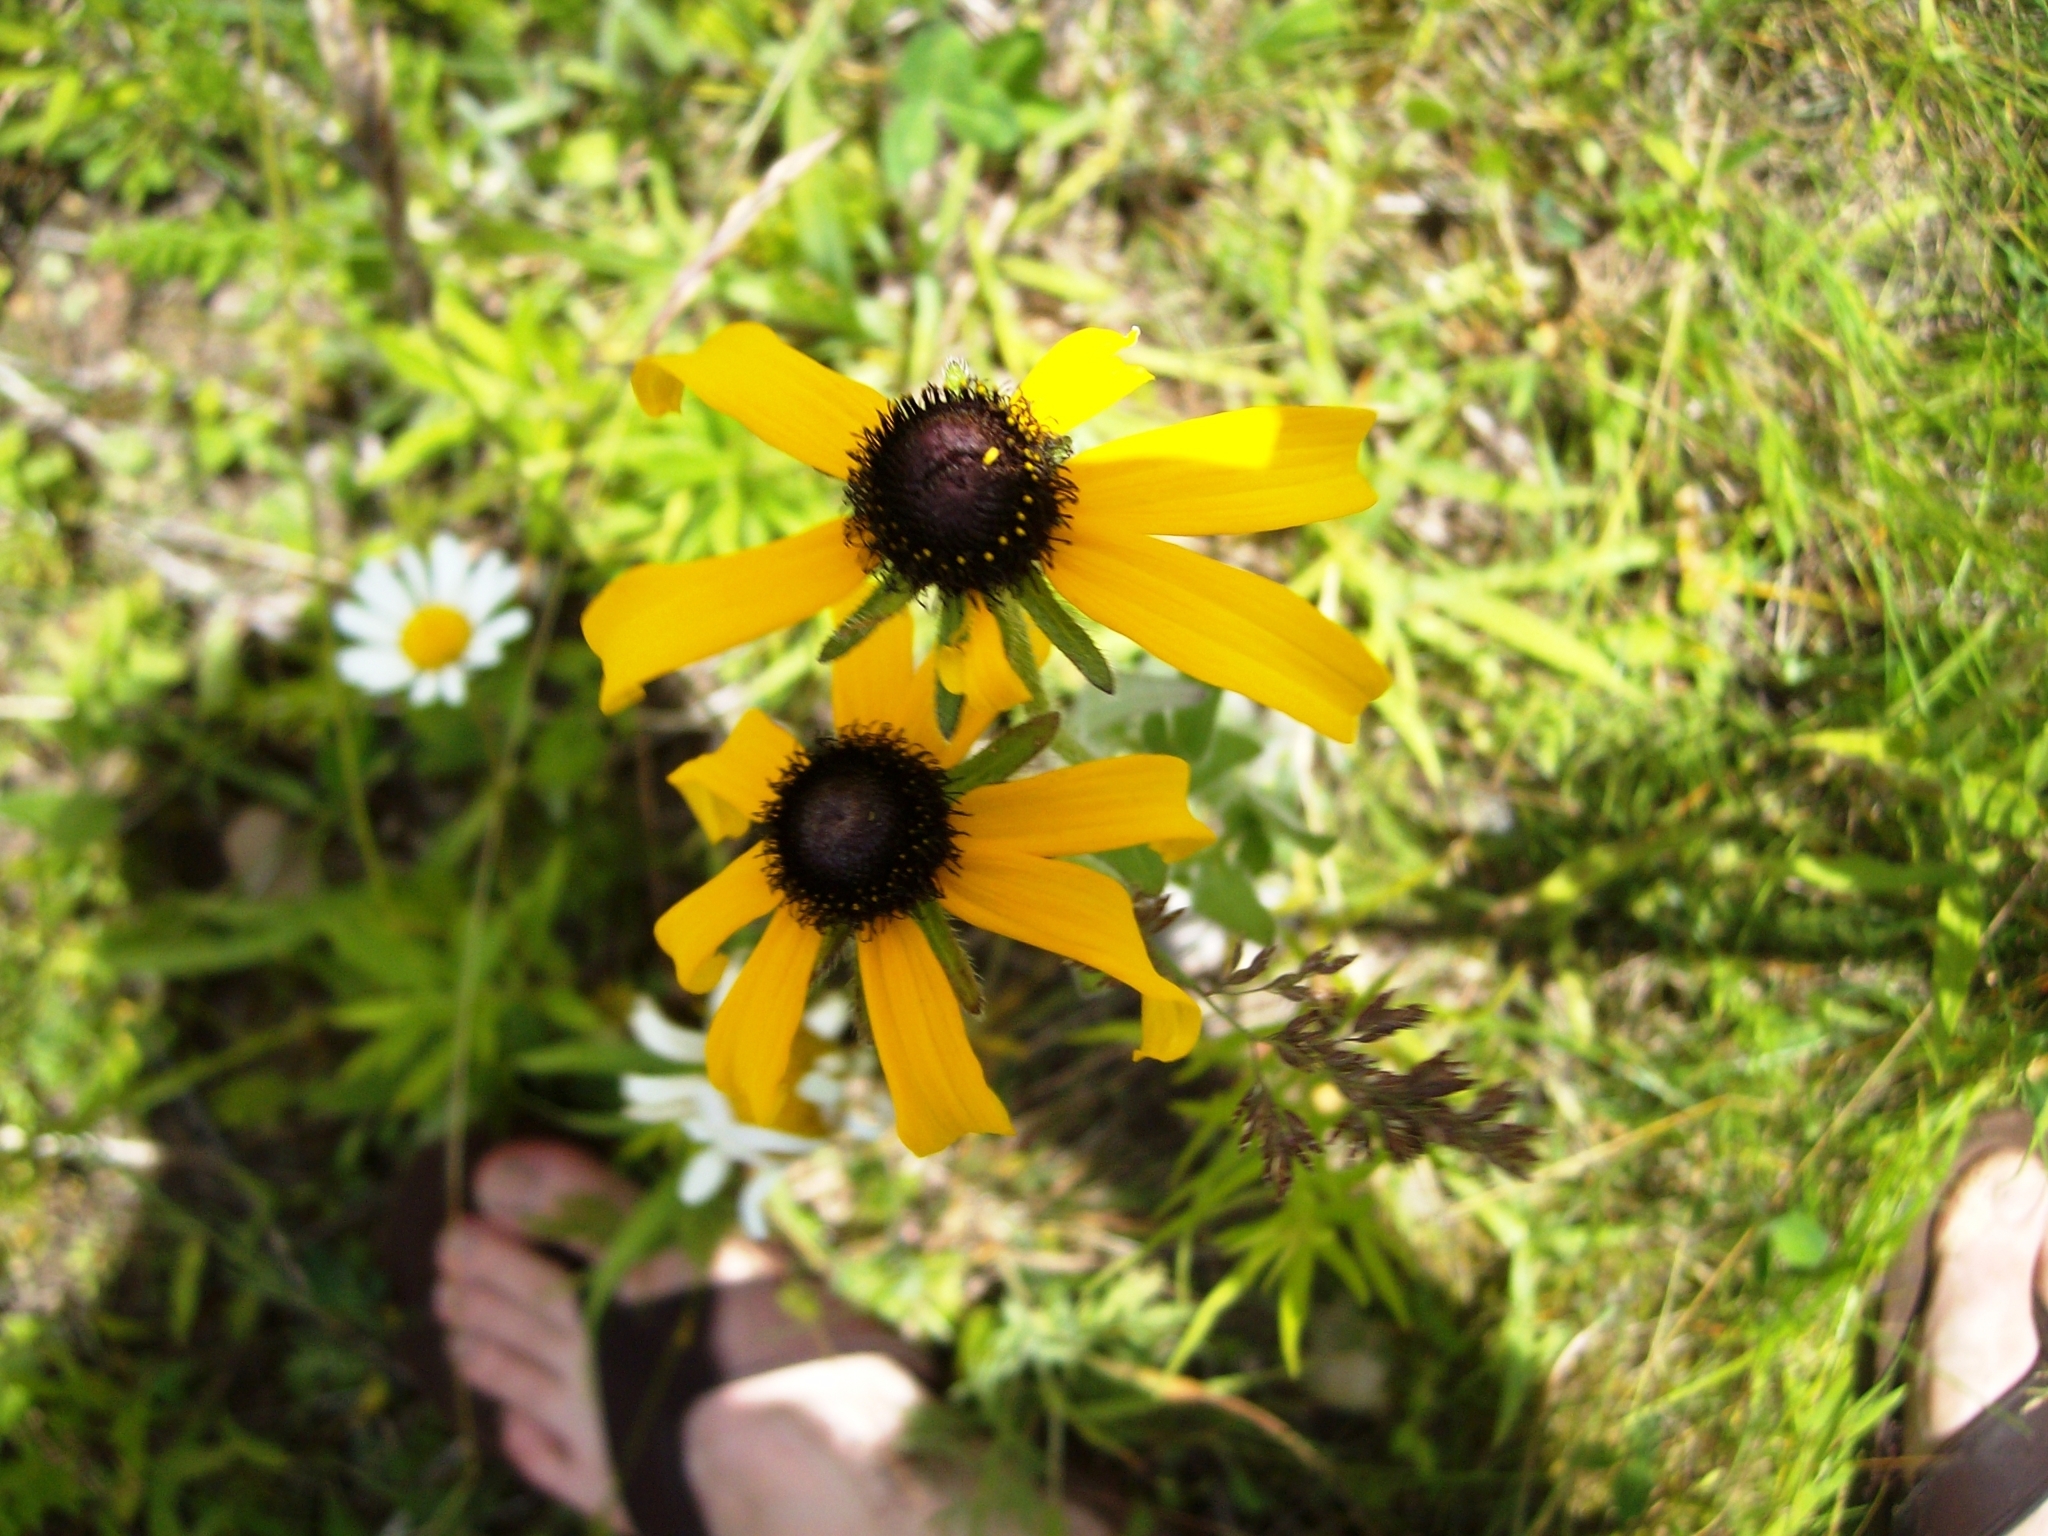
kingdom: Plantae
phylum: Tracheophyta
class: Magnoliopsida
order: Asterales
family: Asteraceae
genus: Rudbeckia
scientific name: Rudbeckia hirta
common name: Black-eyed-susan
